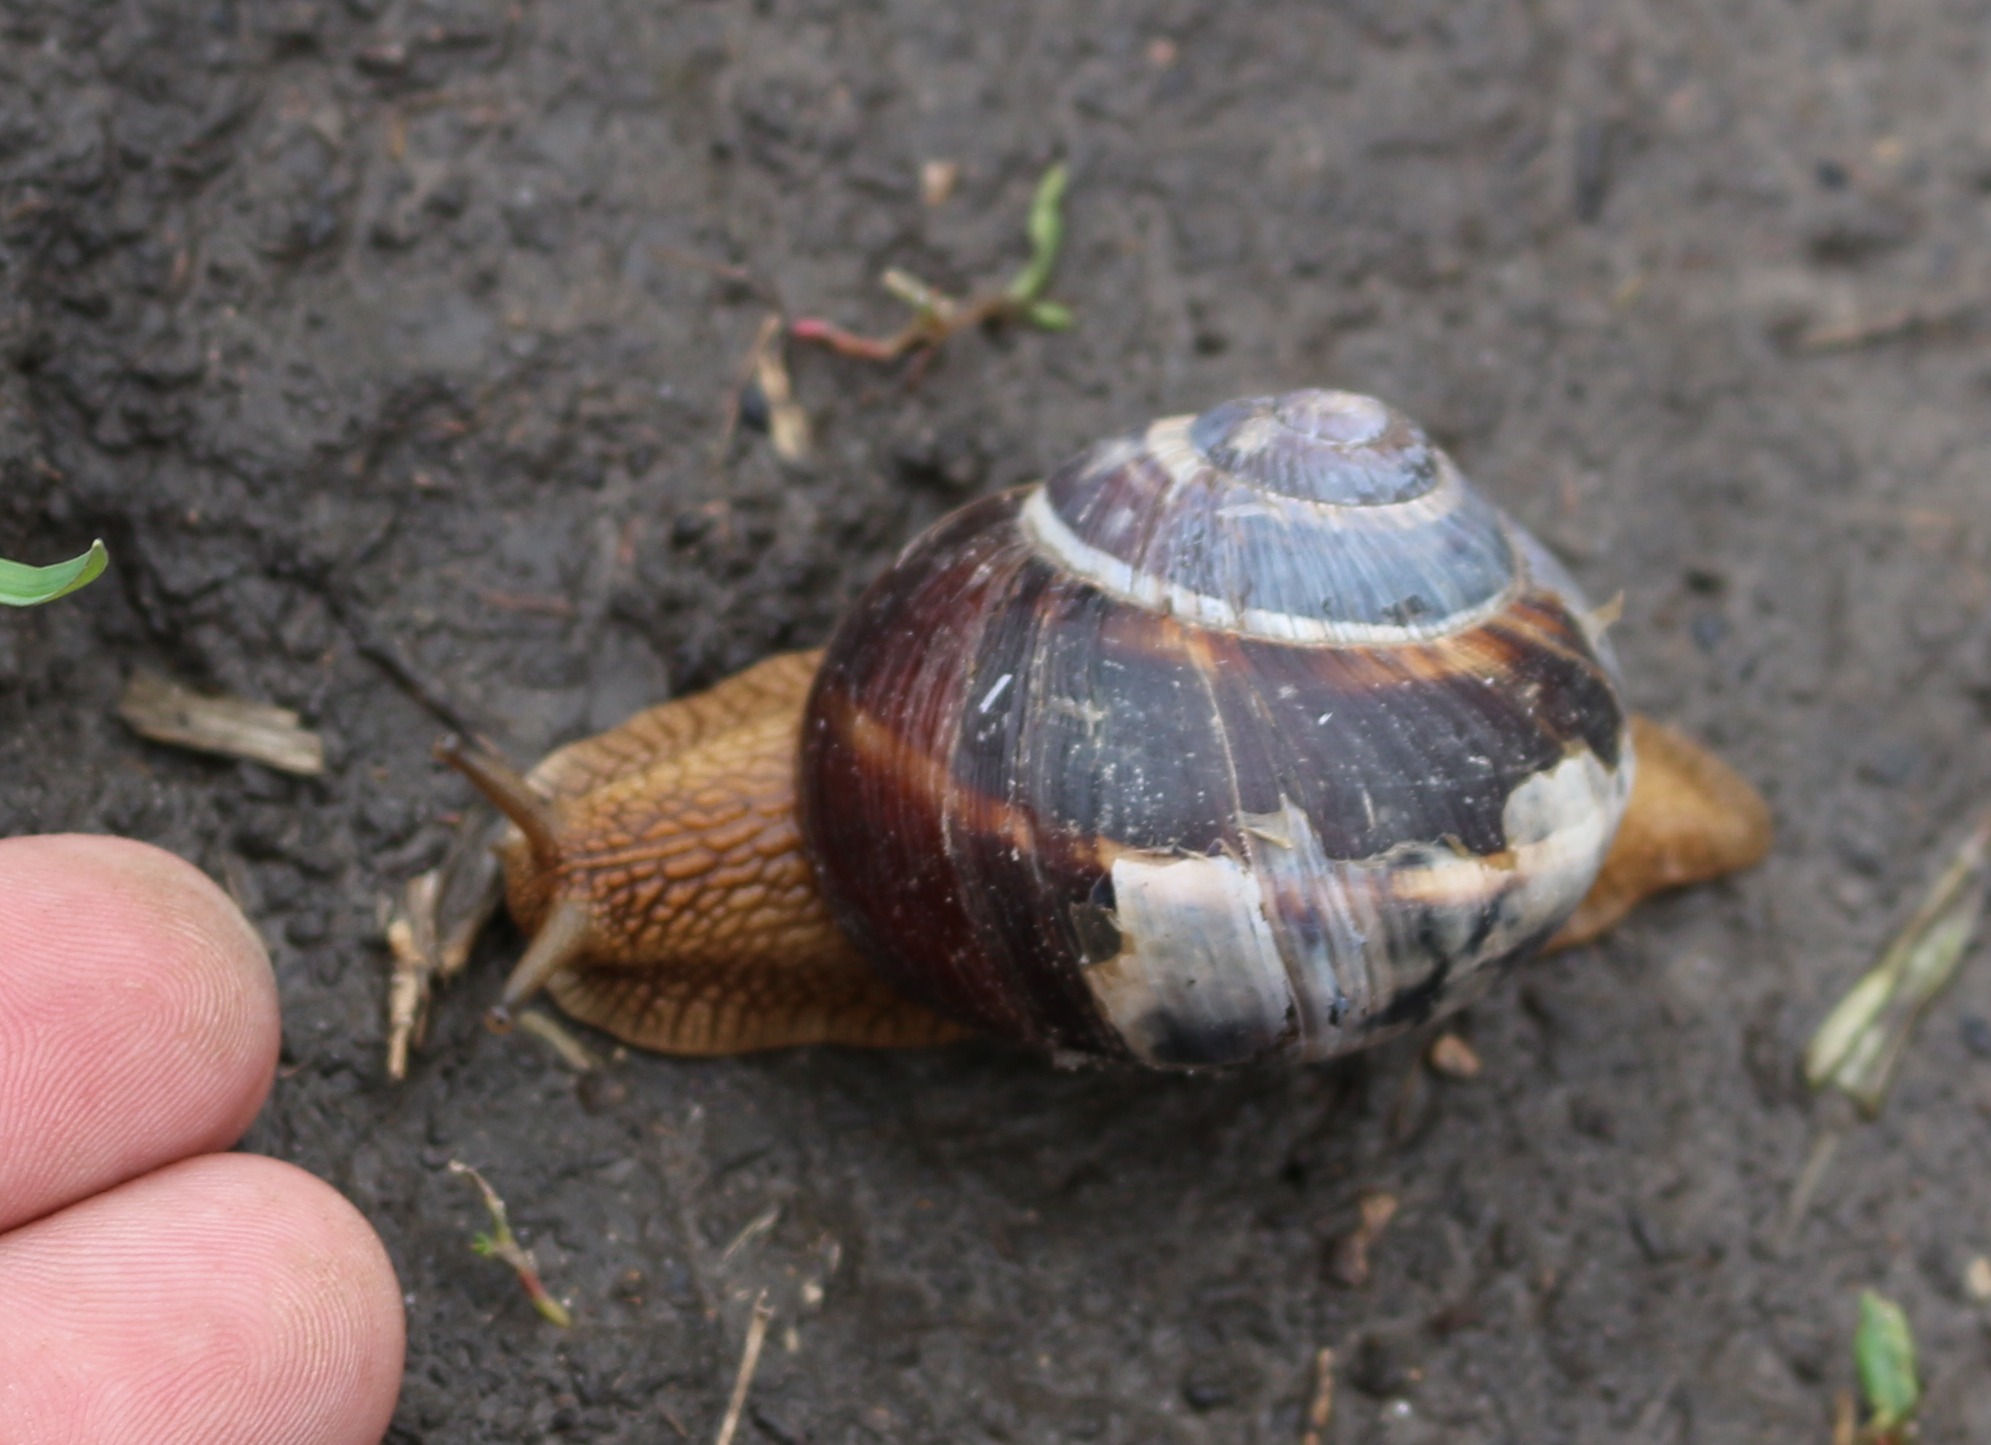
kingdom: Animalia
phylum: Mollusca
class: Gastropoda
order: Stylommatophora
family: Helicidae
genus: Helix
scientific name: Helix lucorum
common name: Turkish snail
